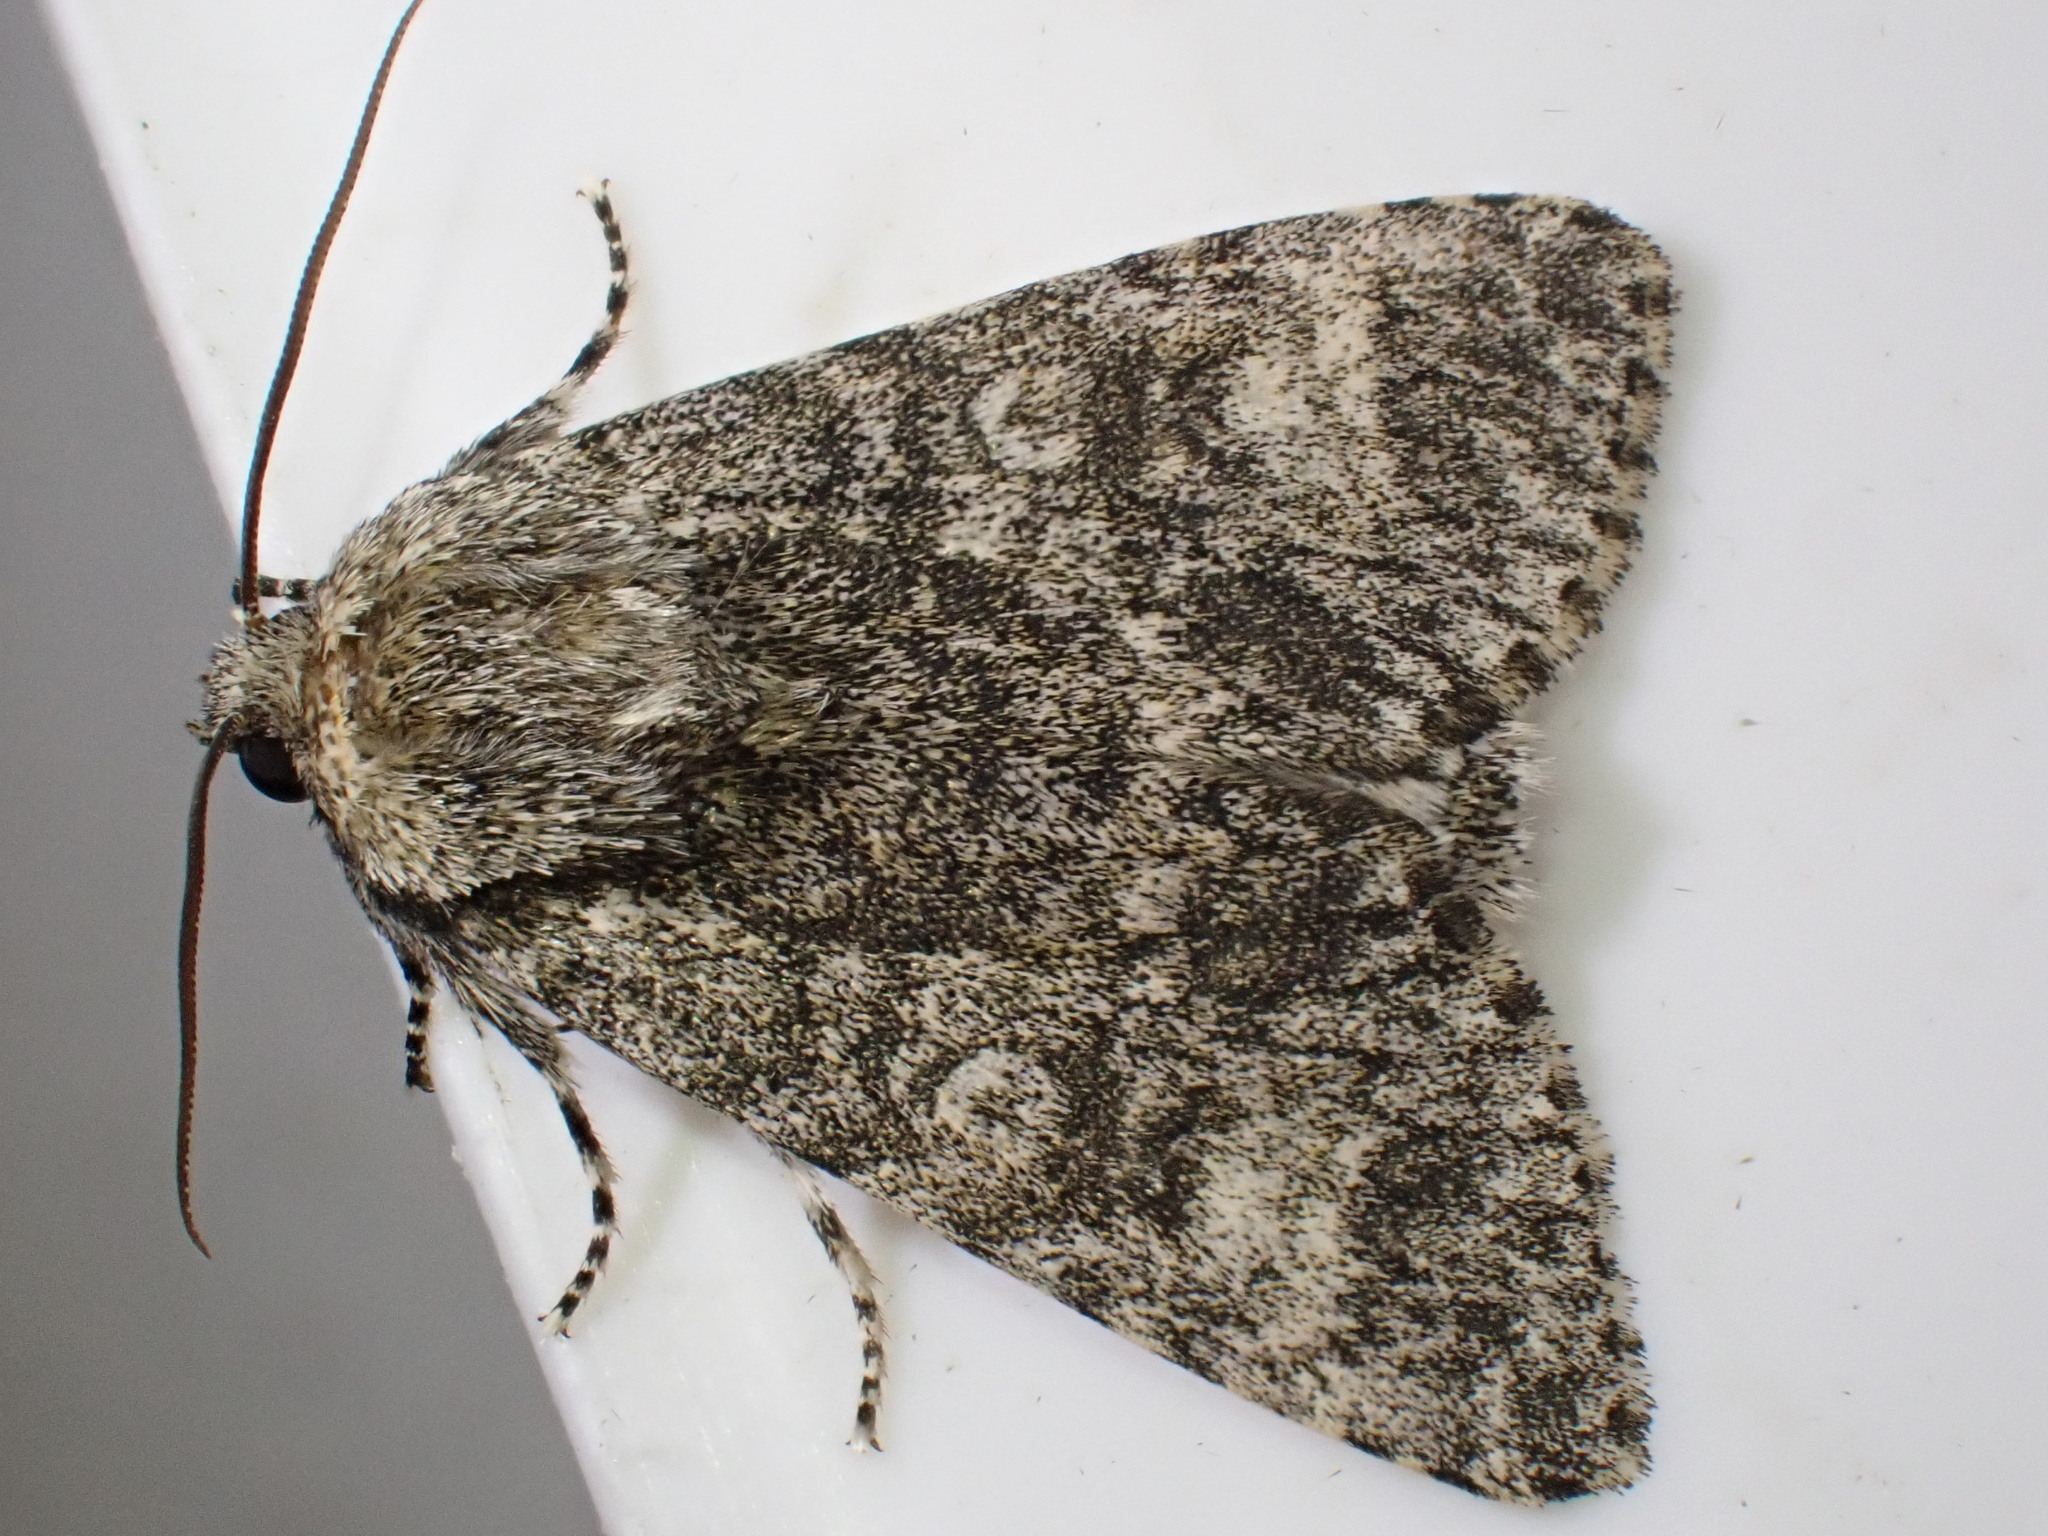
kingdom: Animalia
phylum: Arthropoda
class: Insecta
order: Lepidoptera
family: Noctuidae
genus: Acronicta
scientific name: Acronicta megacephala
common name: Poplar grey
